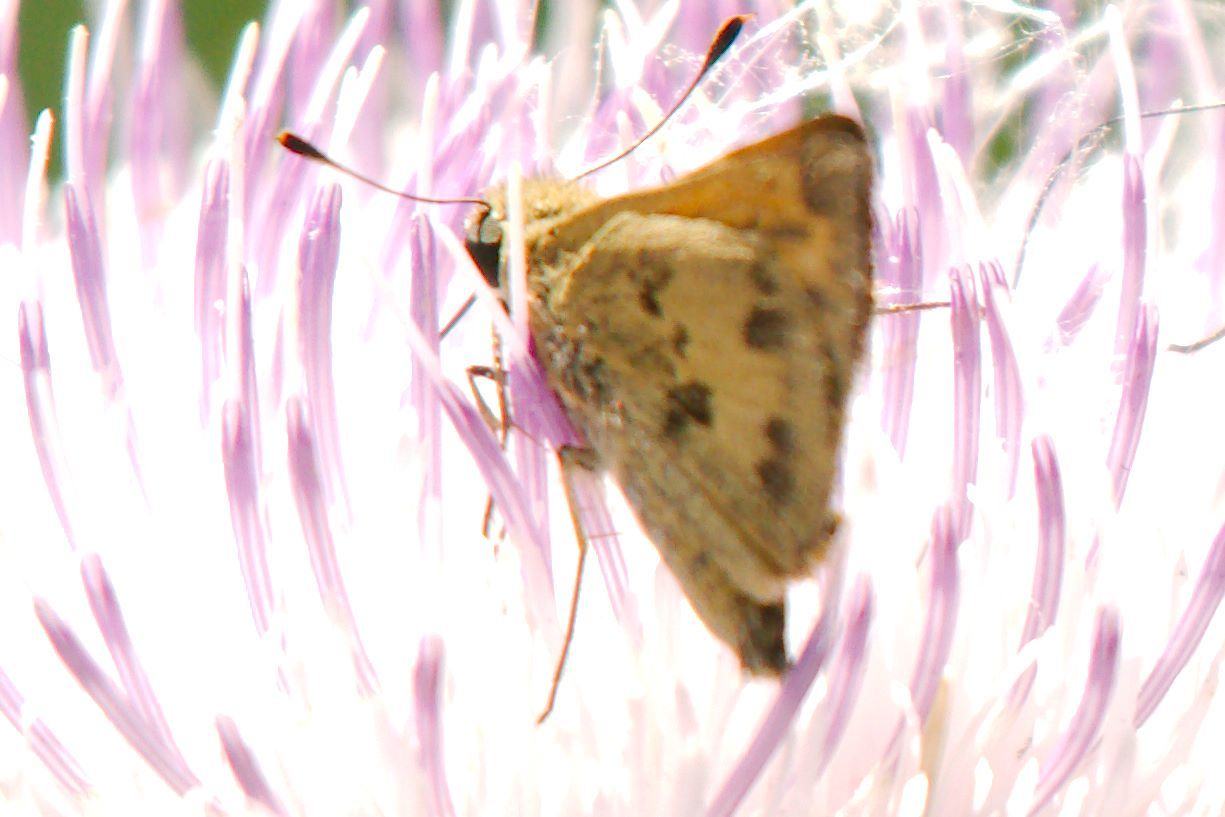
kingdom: Animalia
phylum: Arthropoda
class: Insecta
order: Lepidoptera
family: Hesperiidae
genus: Polites
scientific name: Polites vibex
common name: Whirlabout
